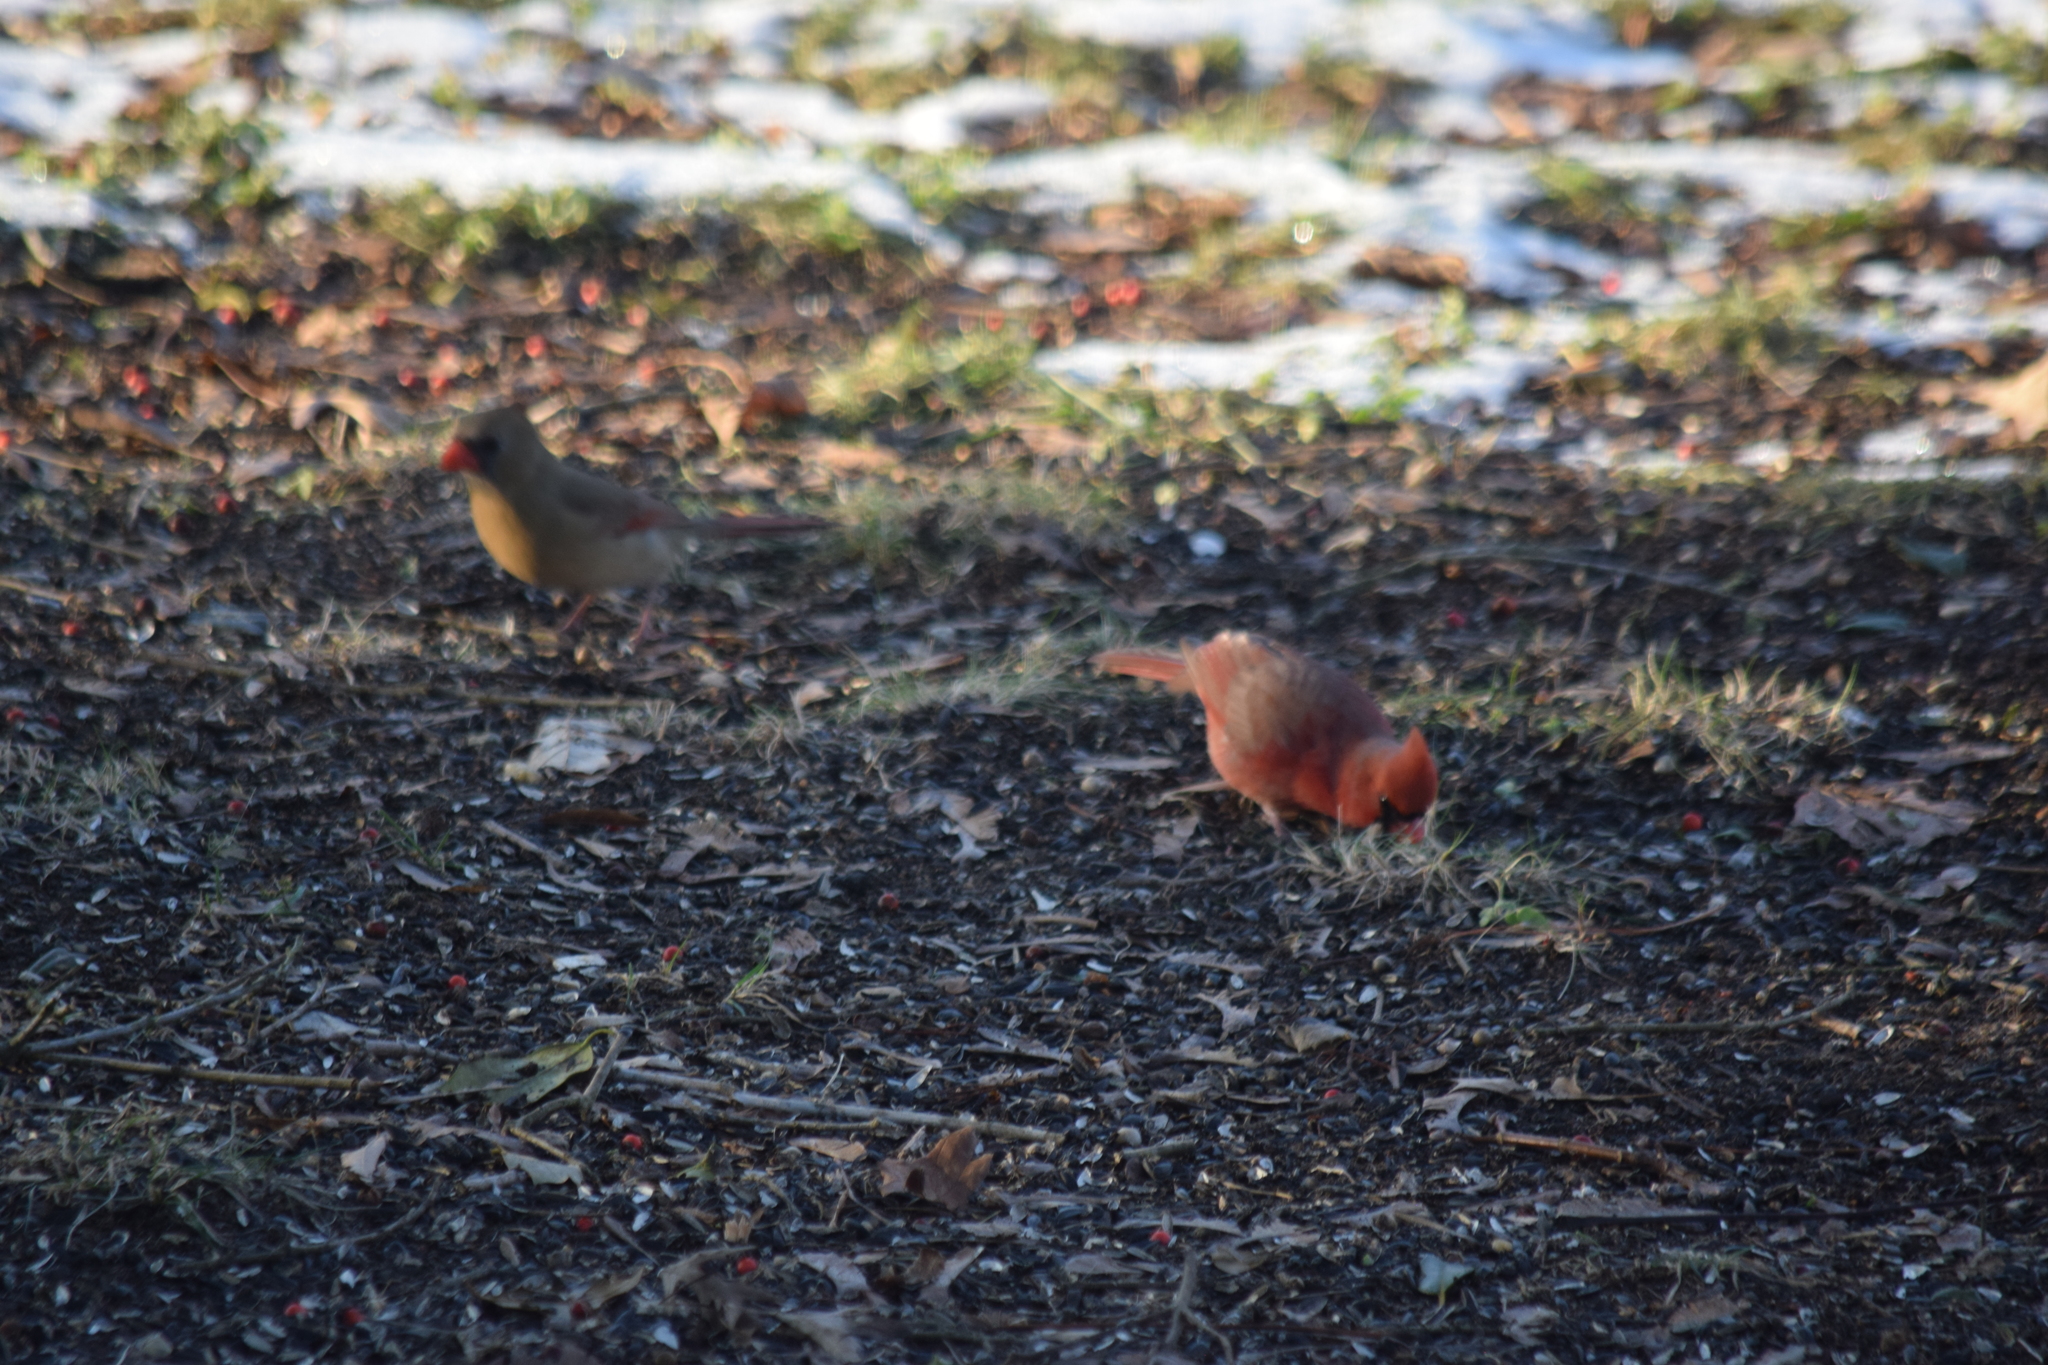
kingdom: Animalia
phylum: Chordata
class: Aves
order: Passeriformes
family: Cardinalidae
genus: Cardinalis
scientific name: Cardinalis cardinalis
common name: Northern cardinal
